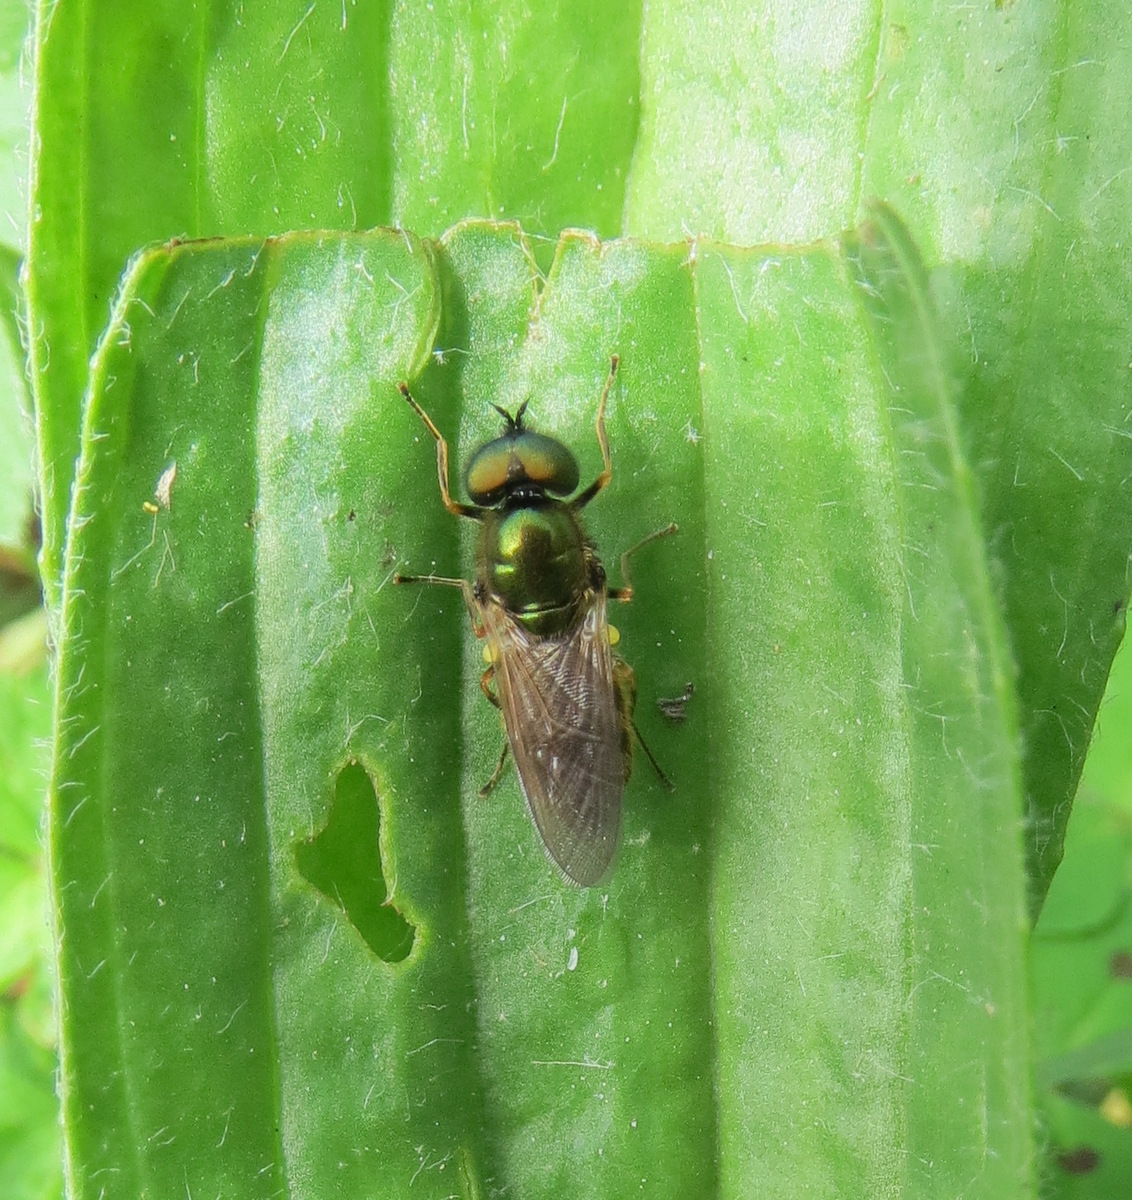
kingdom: Animalia
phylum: Arthropoda
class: Insecta
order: Diptera
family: Stratiomyidae
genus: Chloromyia
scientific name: Chloromyia formosa
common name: Soldier fly
